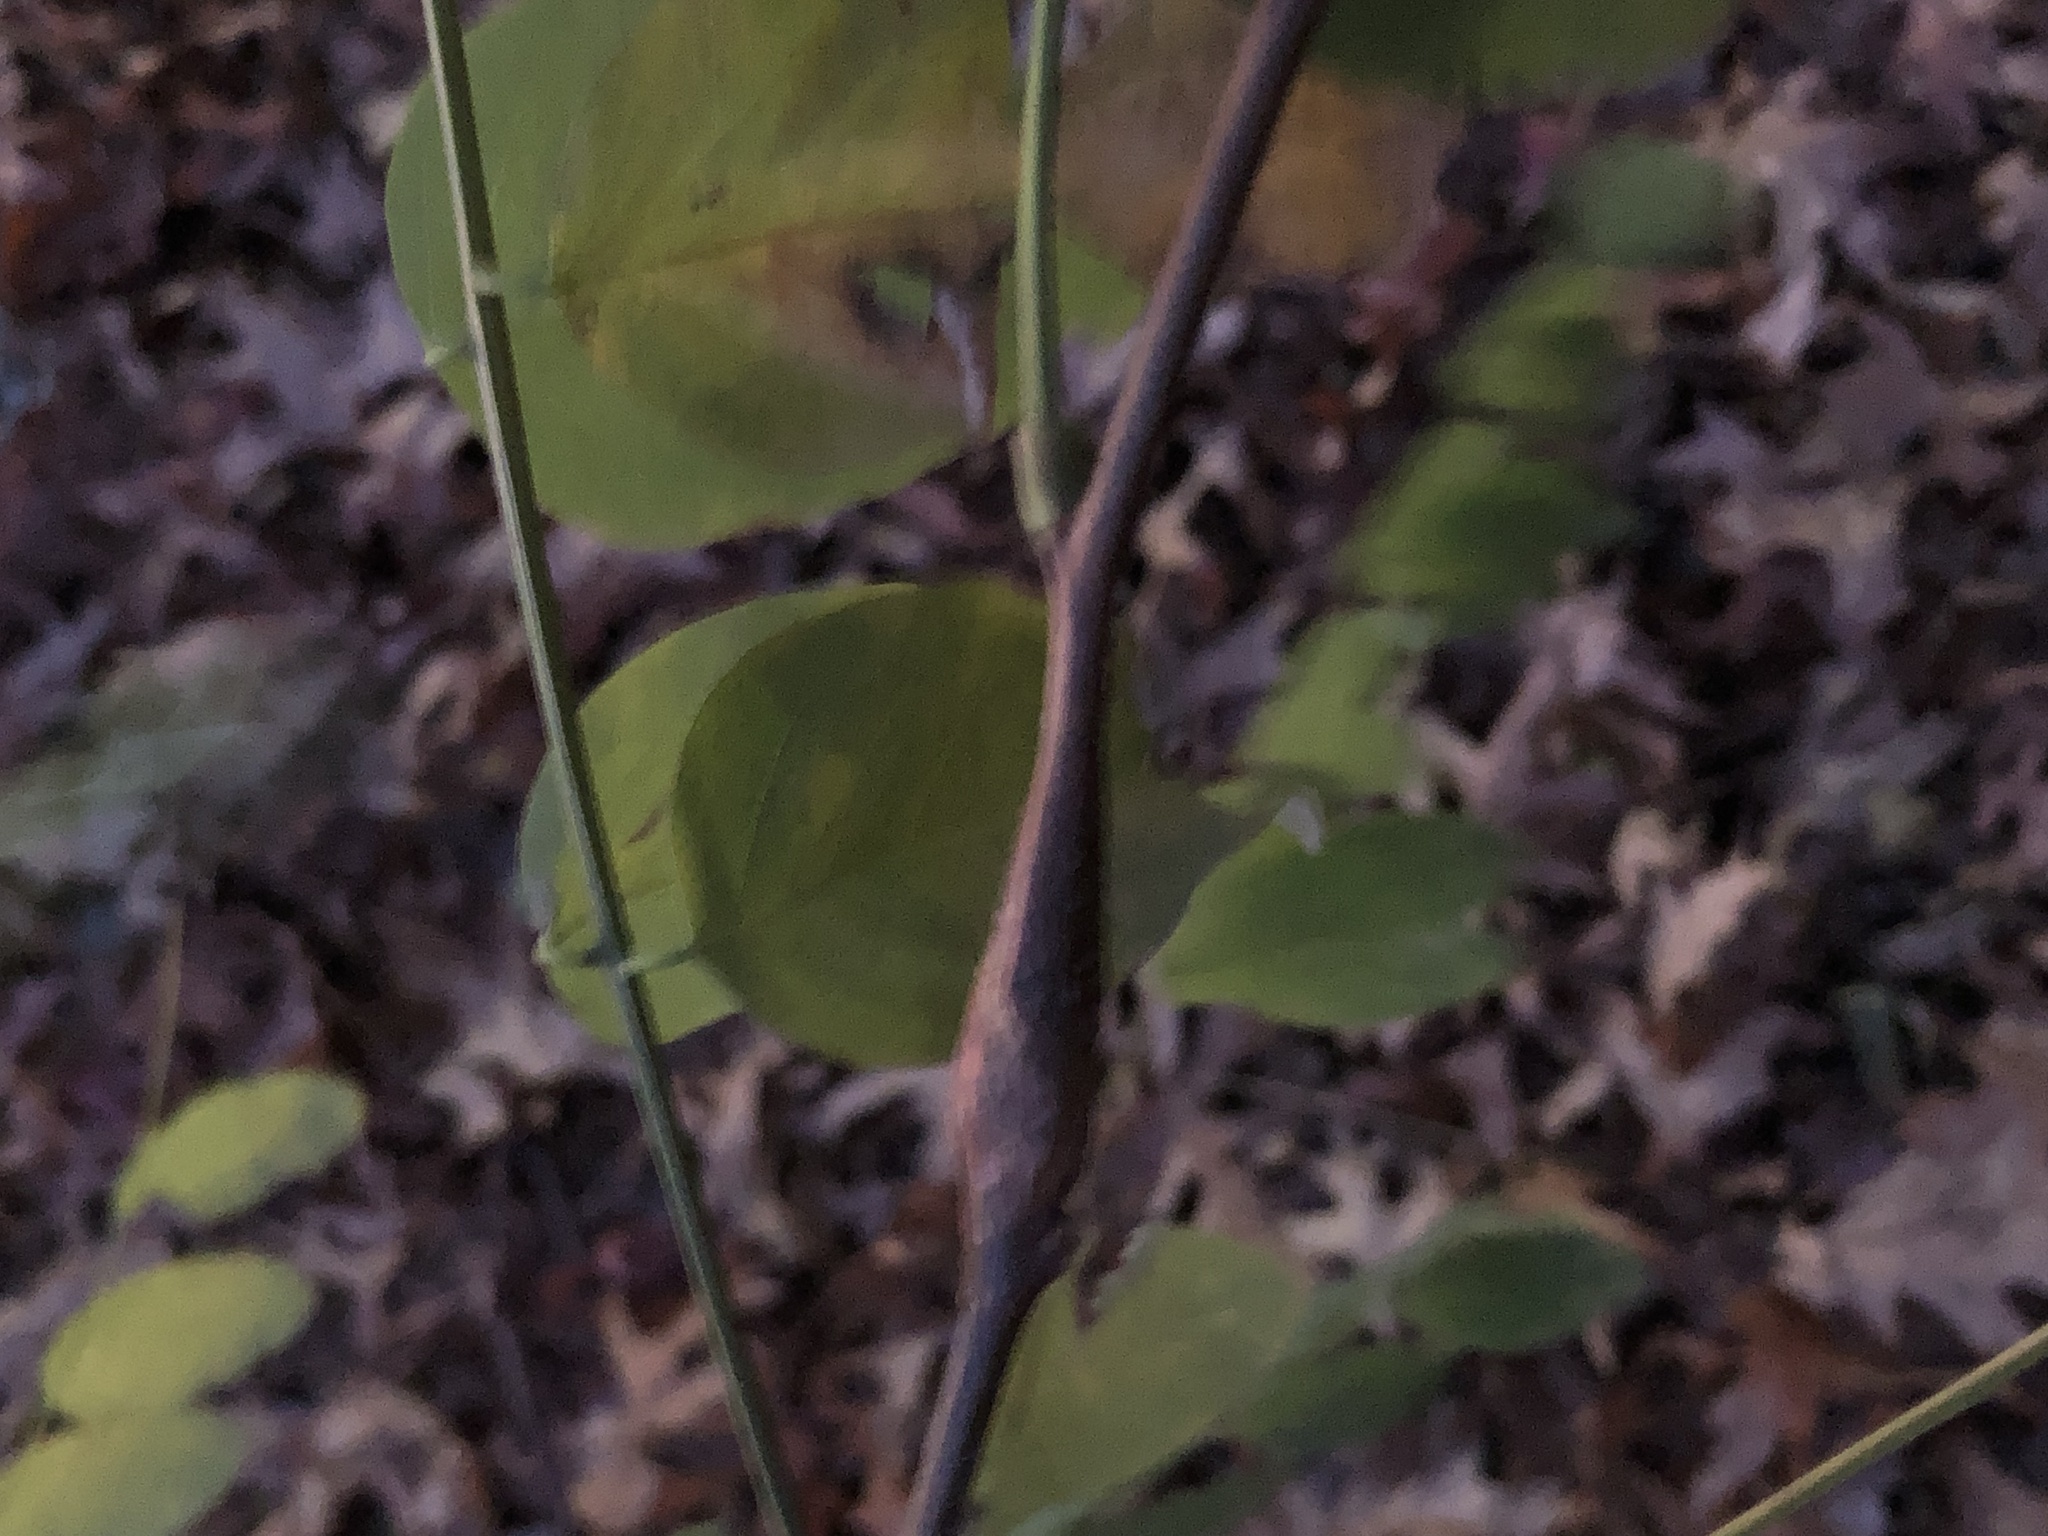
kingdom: Animalia
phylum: Arthropoda
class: Insecta
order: Lepidoptera
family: Tortricidae
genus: Ecdytolopha
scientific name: Ecdytolopha insiticiana
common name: Locust twig borer moth
